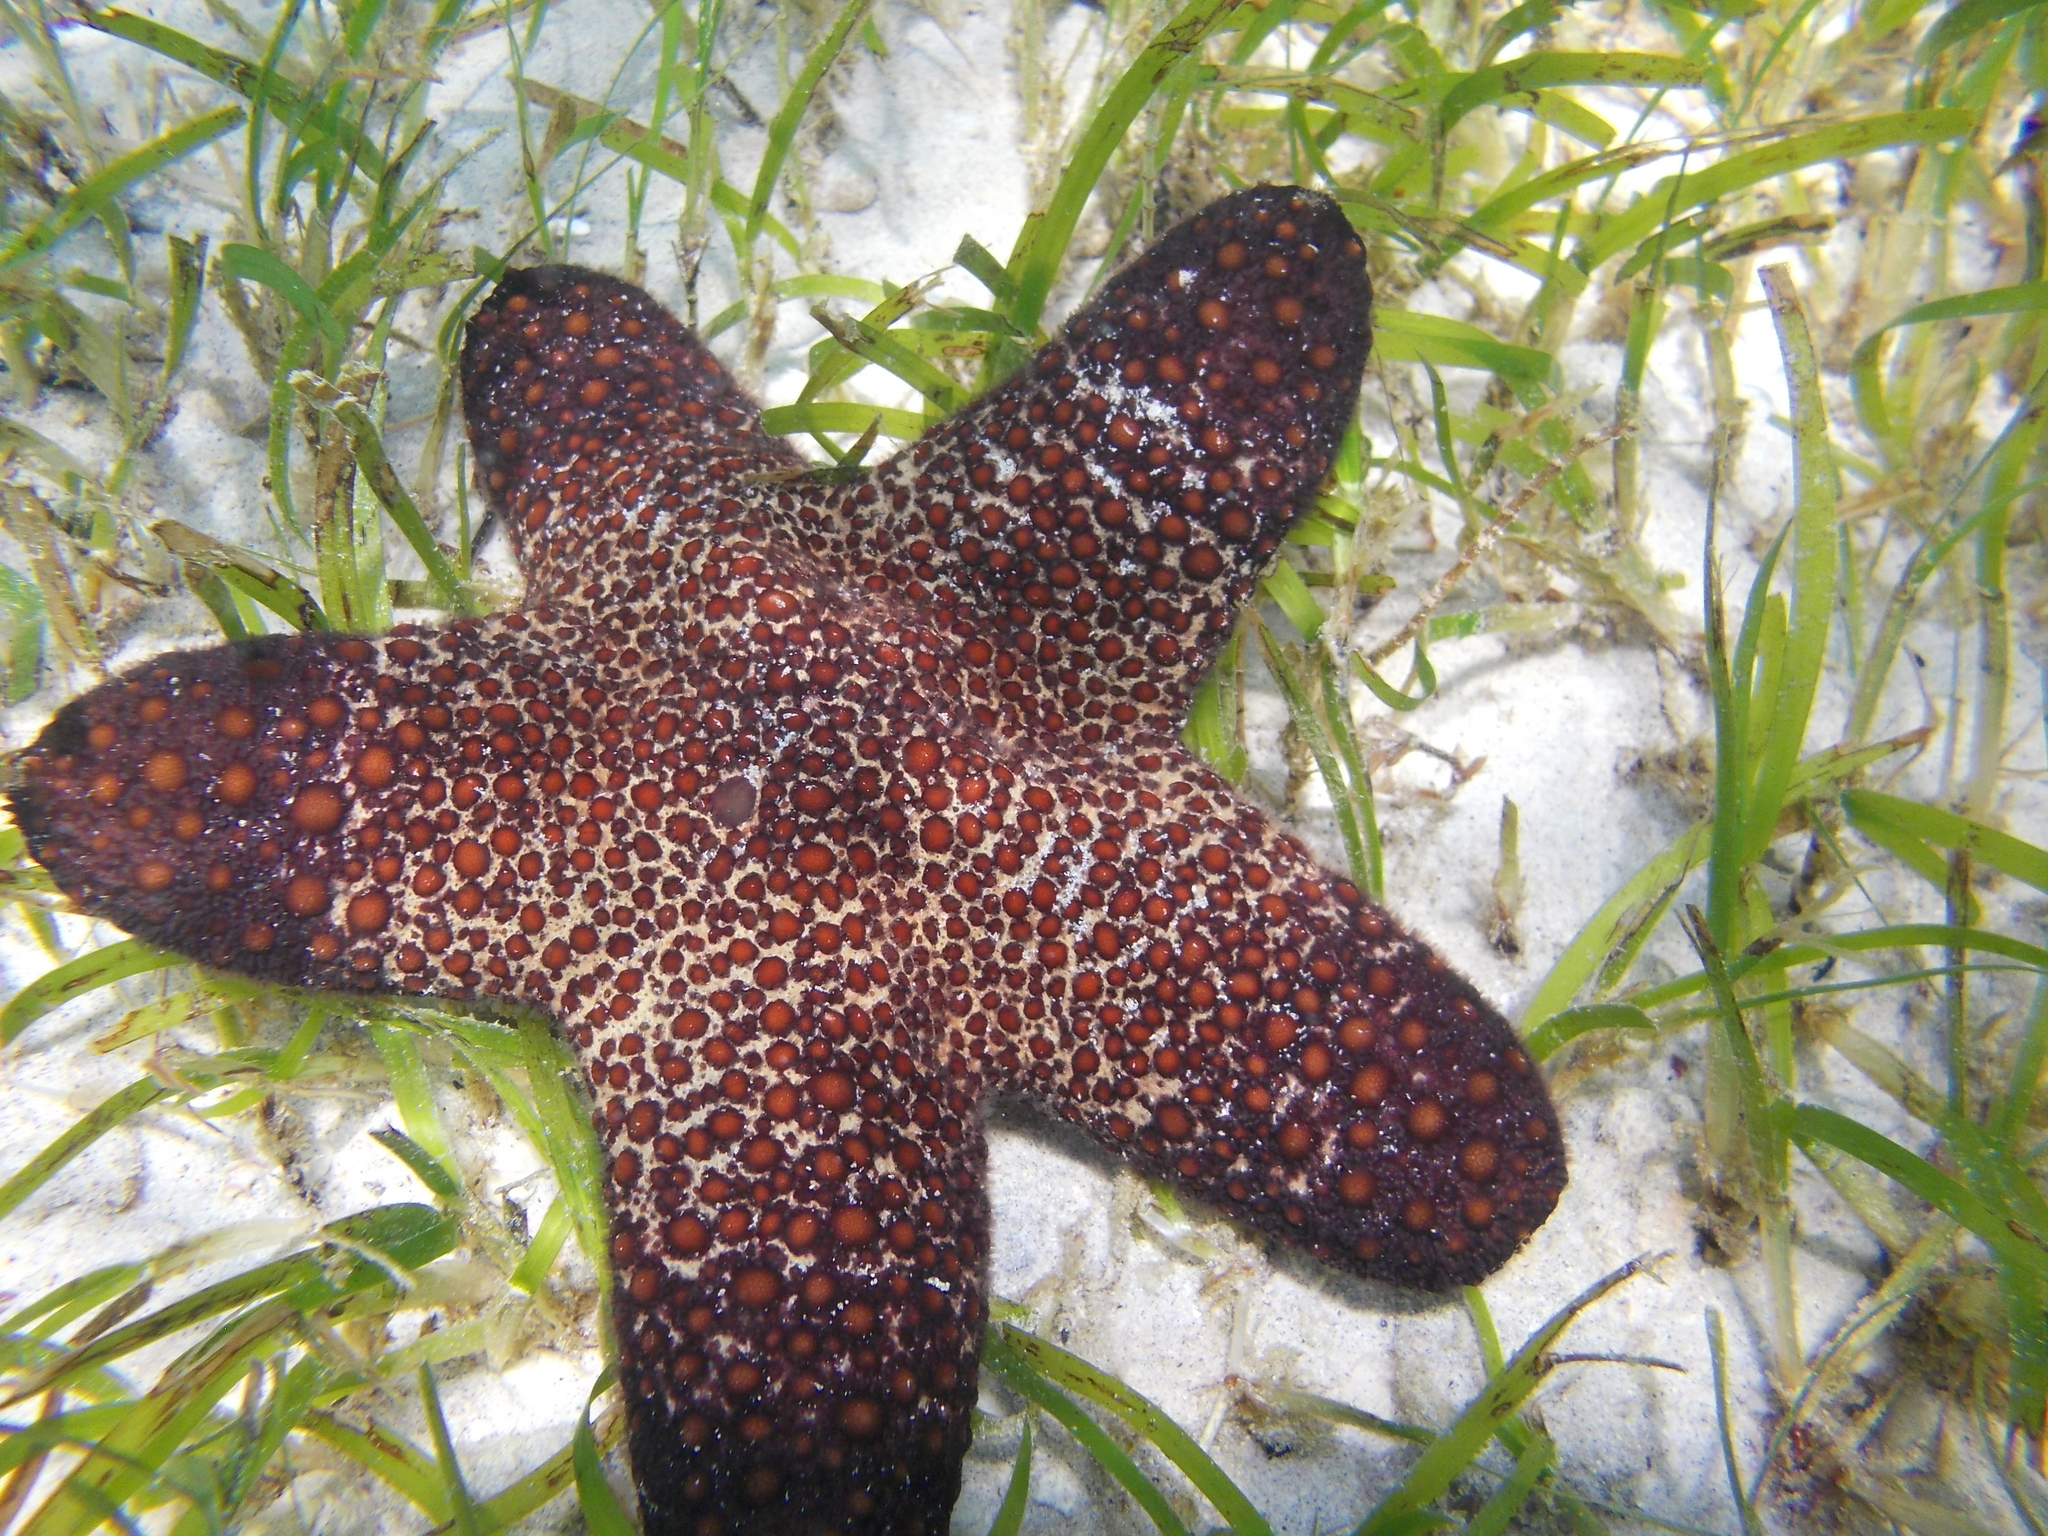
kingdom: Animalia
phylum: Echinodermata
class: Asteroidea
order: Valvatida
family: Oreasteridae
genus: Pentaster
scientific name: Pentaster obtusatus
